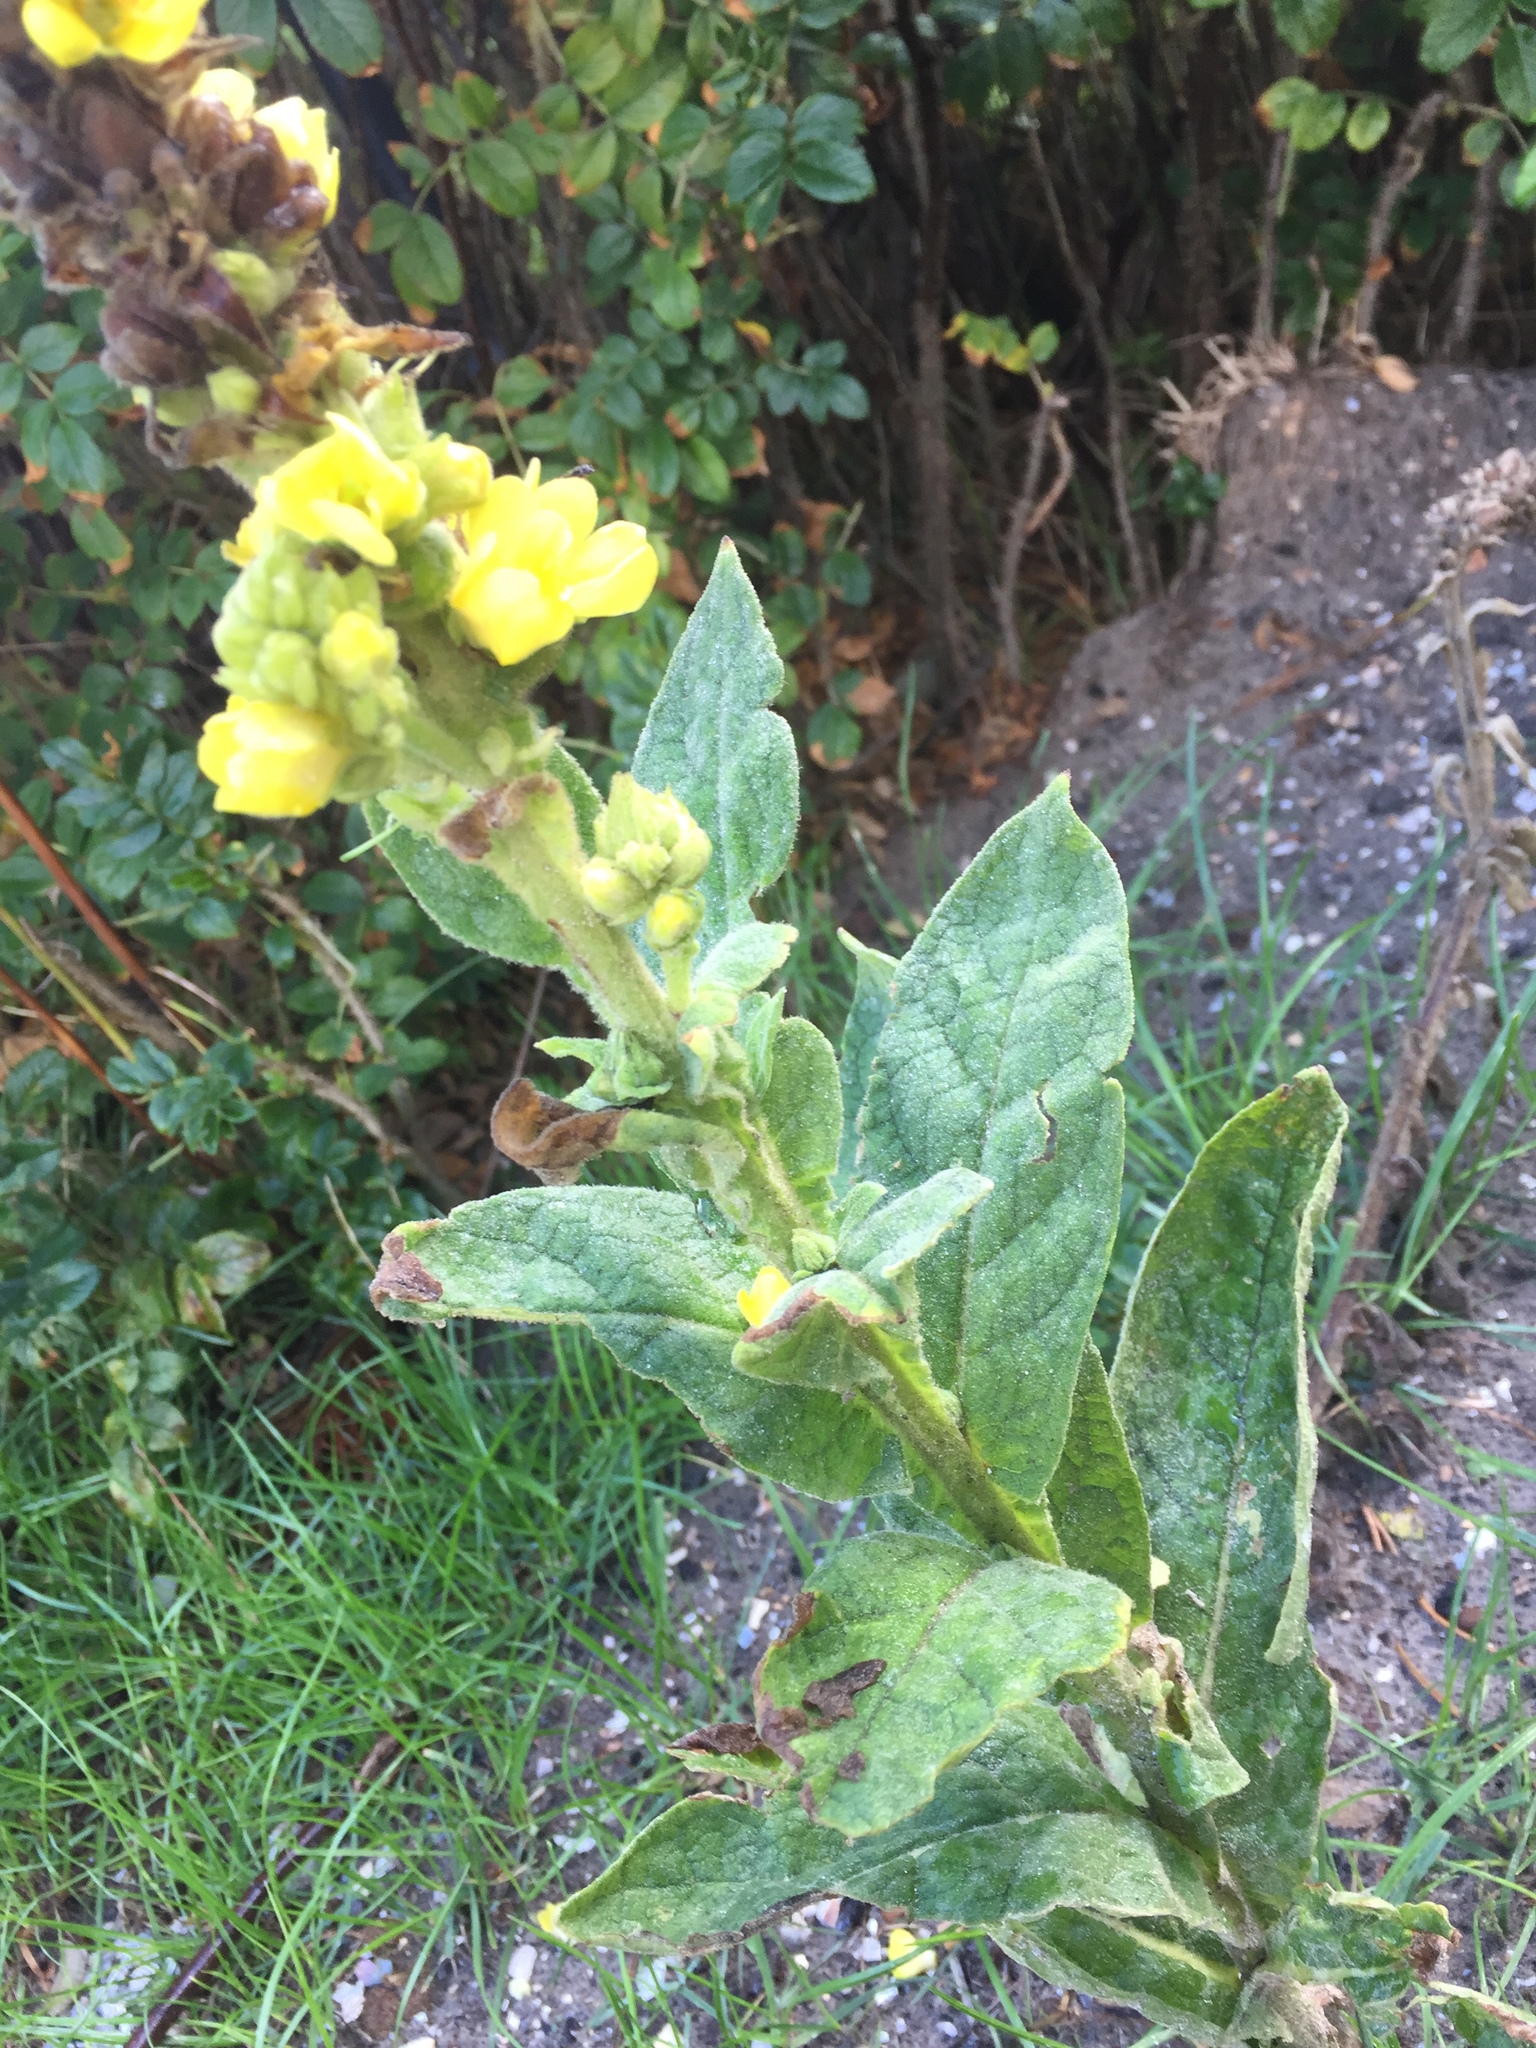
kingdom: Plantae
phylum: Tracheophyta
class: Magnoliopsida
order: Lamiales
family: Scrophulariaceae
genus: Verbascum
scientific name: Verbascum thapsus
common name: Common mullein
